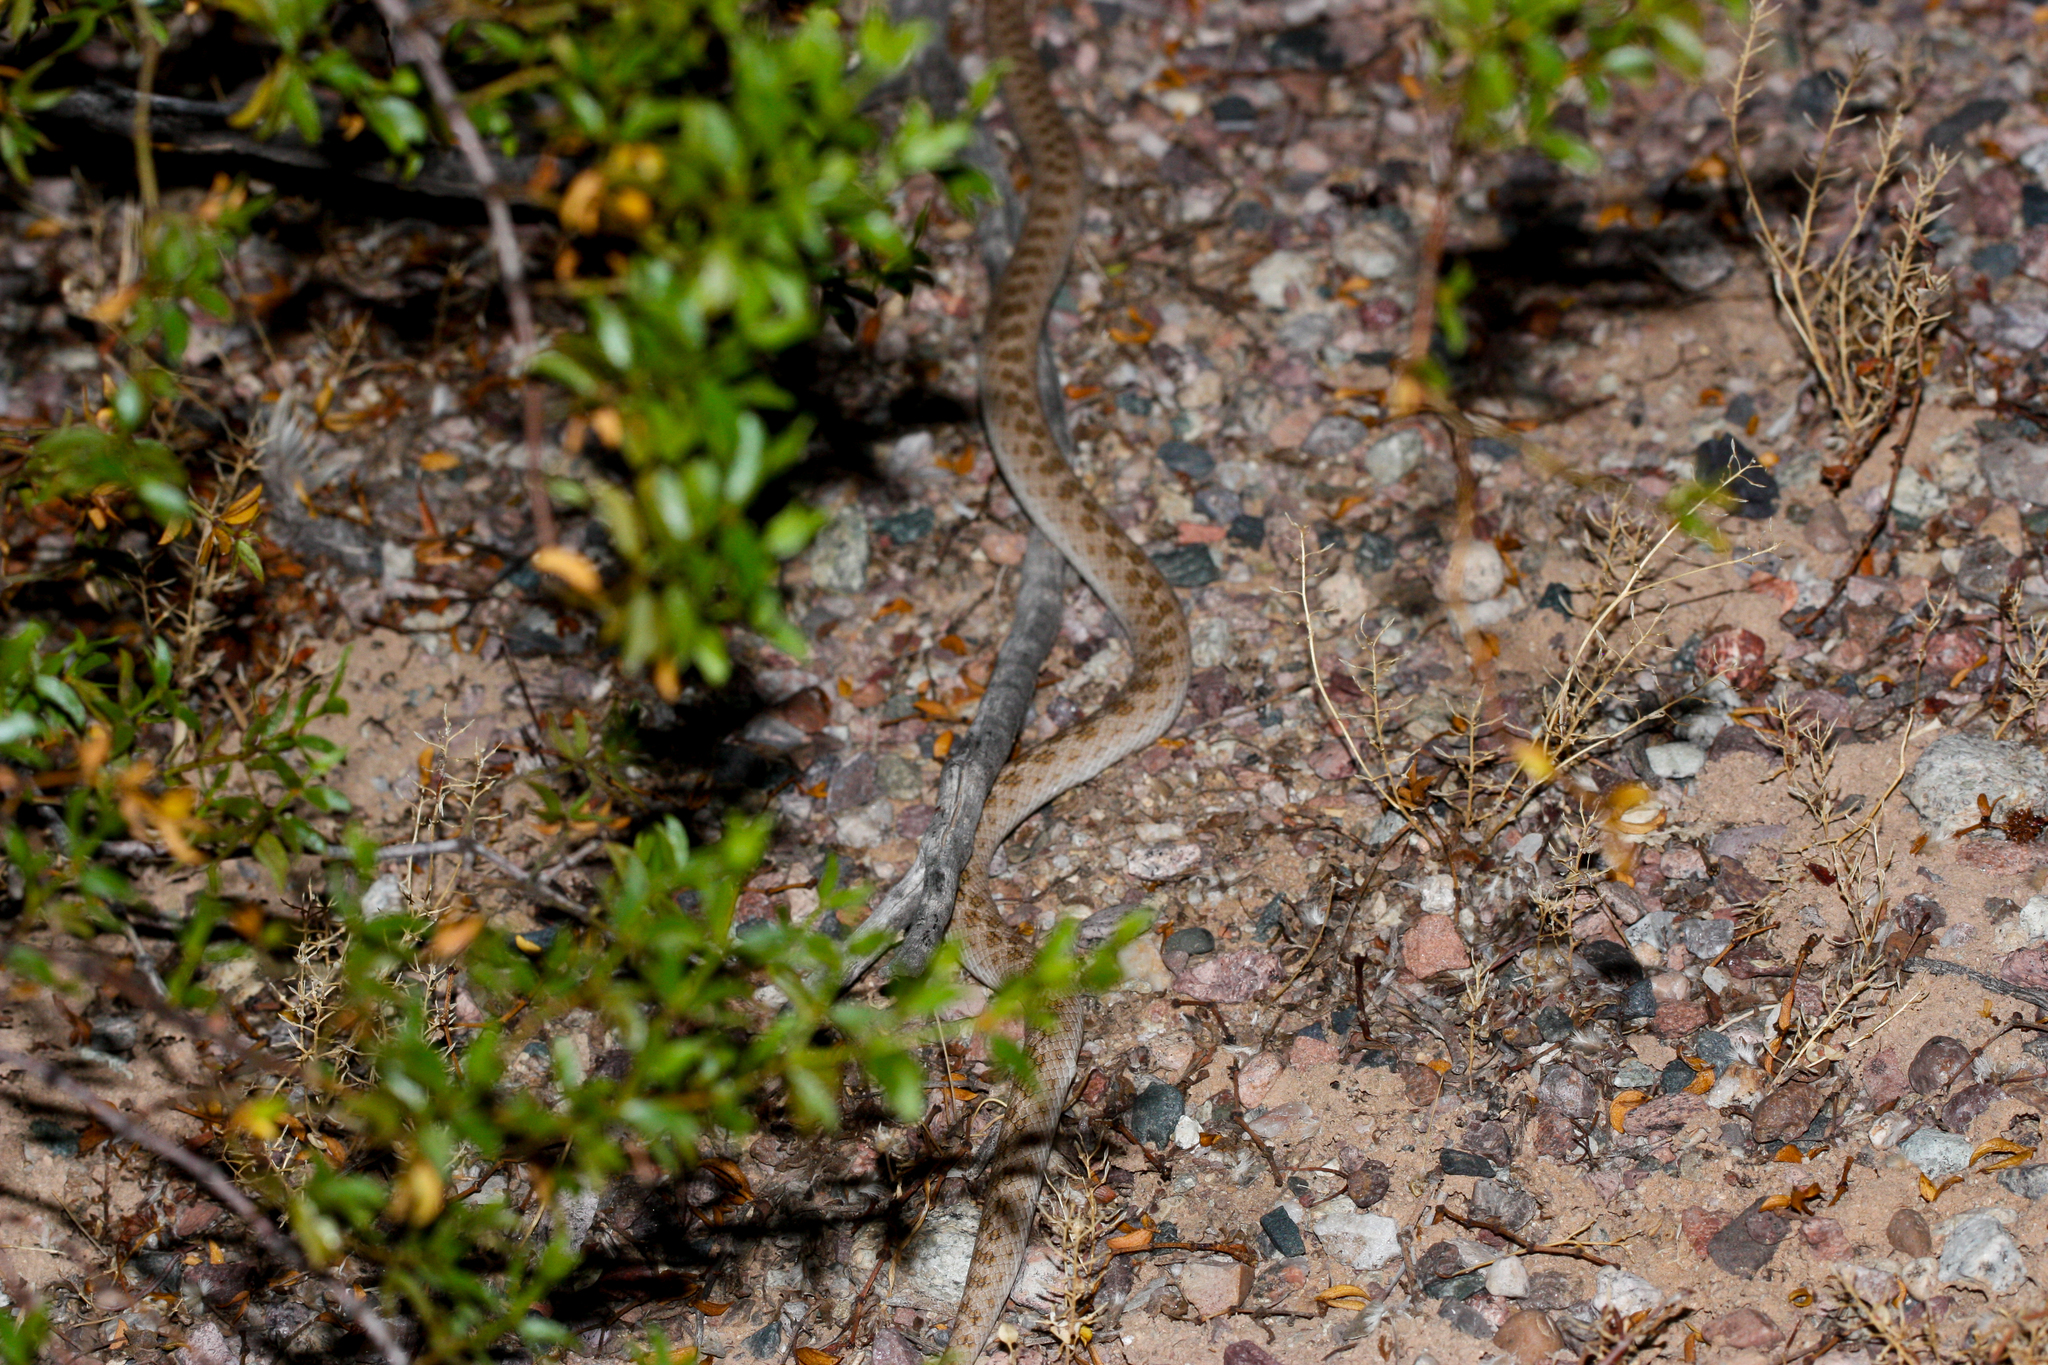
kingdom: Animalia
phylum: Chordata
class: Squamata
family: Colubridae
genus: Hypsiglena
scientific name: Hypsiglena chlorophaea
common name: Desert nightsnake
